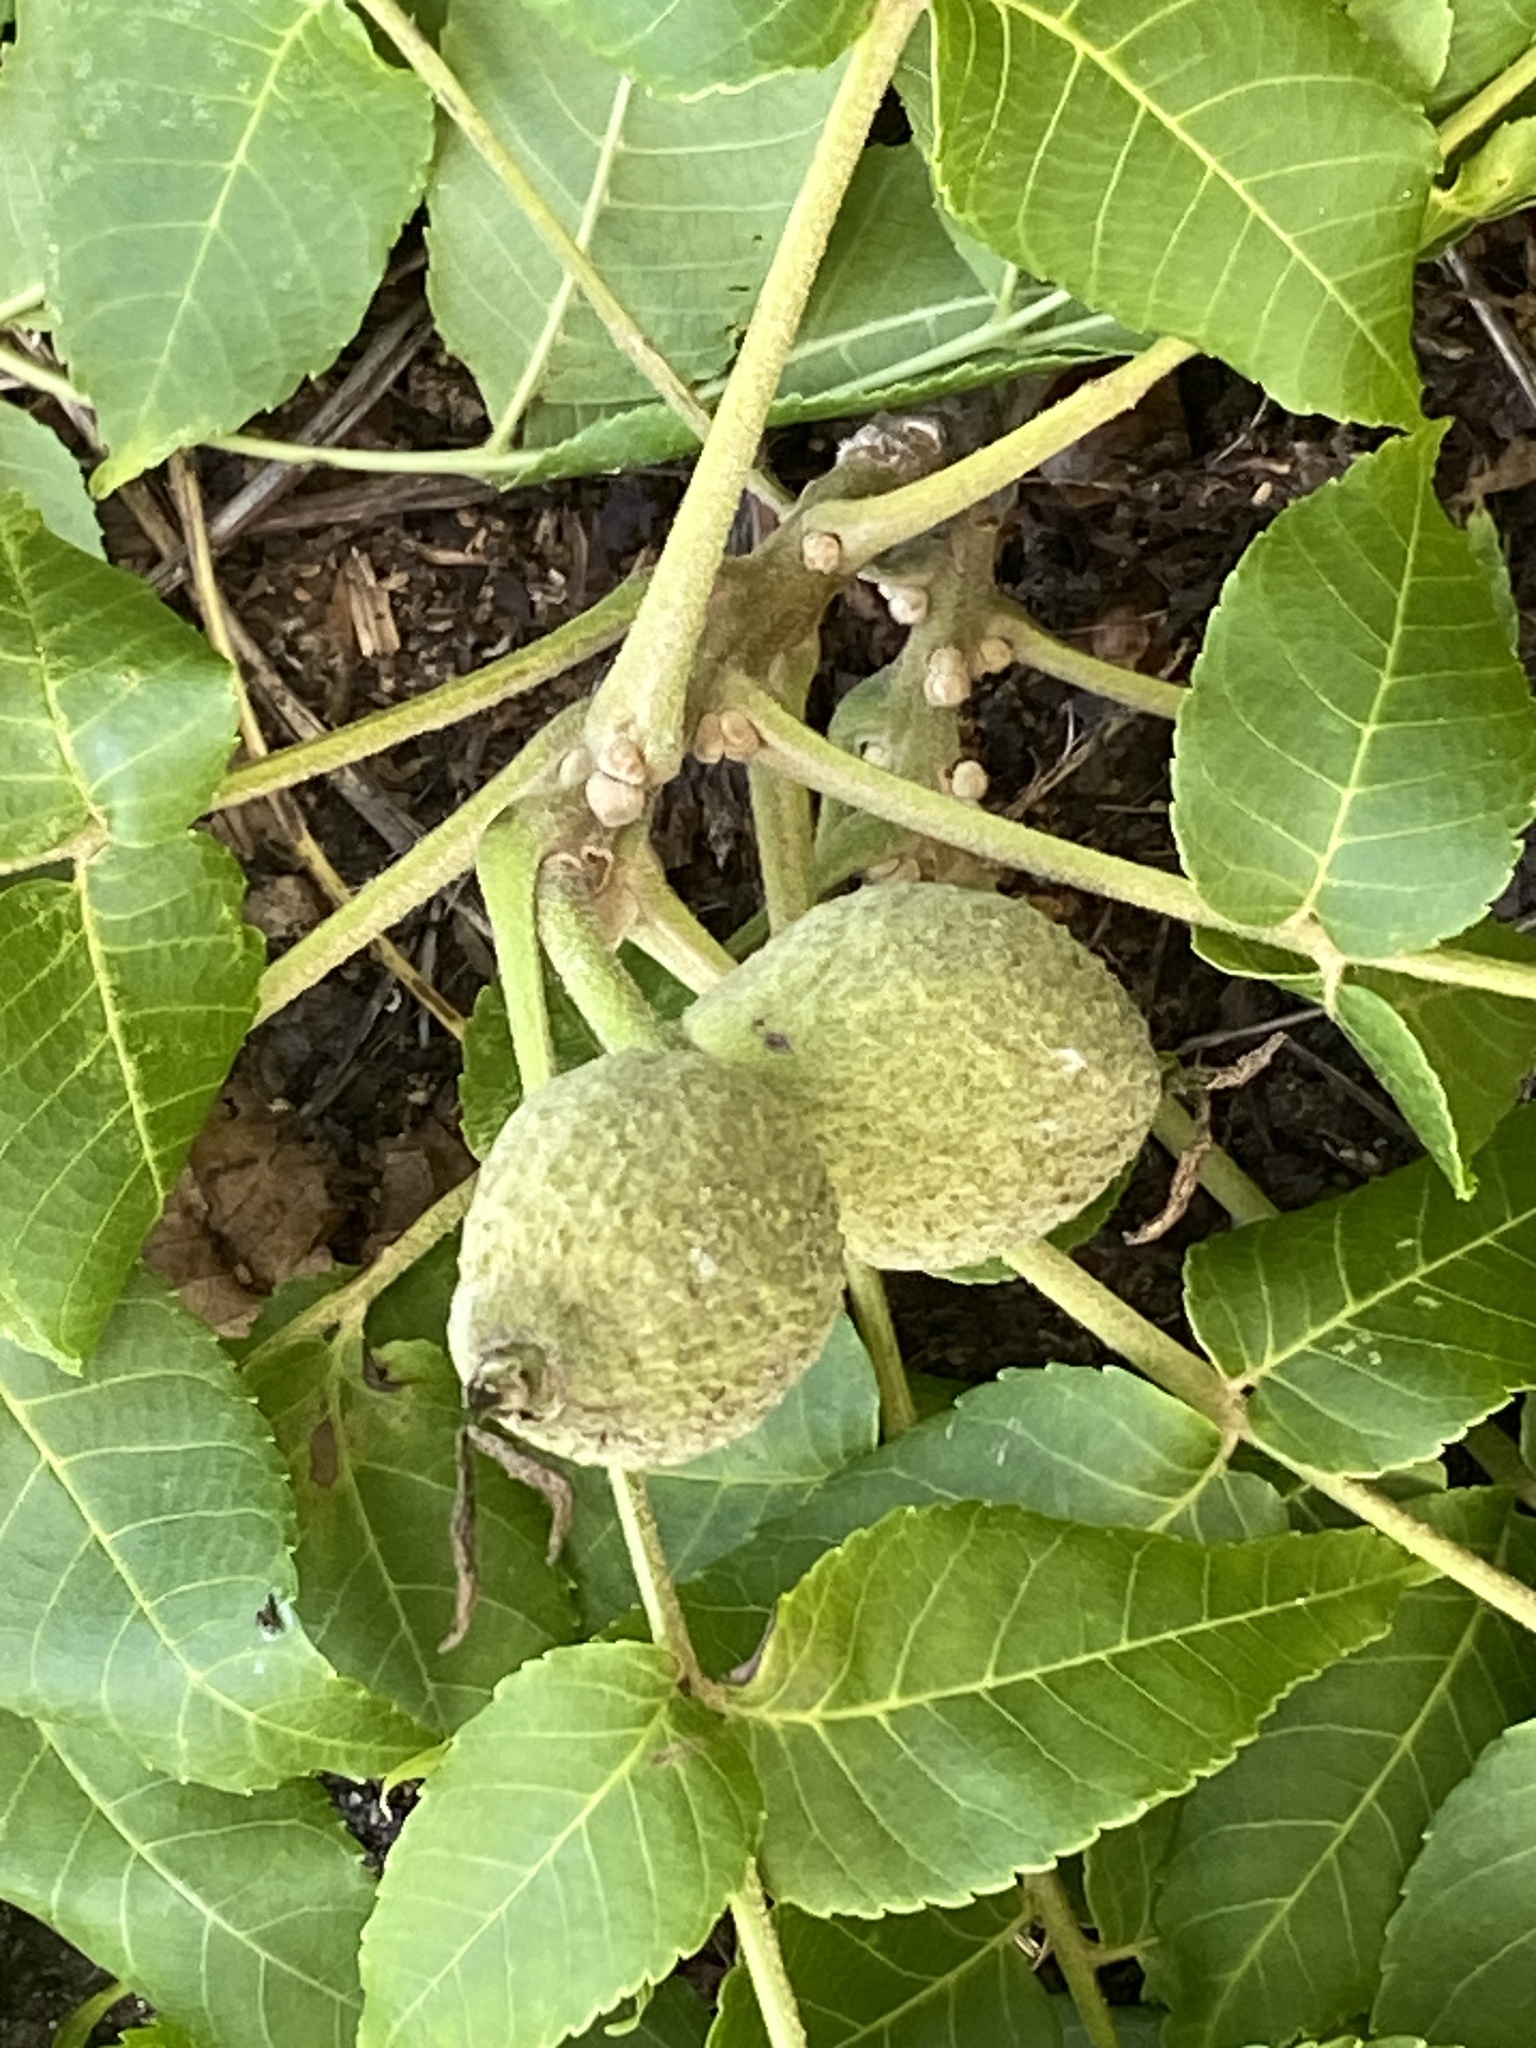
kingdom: Plantae
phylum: Tracheophyta
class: Magnoliopsida
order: Fagales
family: Juglandaceae
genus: Juglans
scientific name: Juglans nigra
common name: Black walnut
